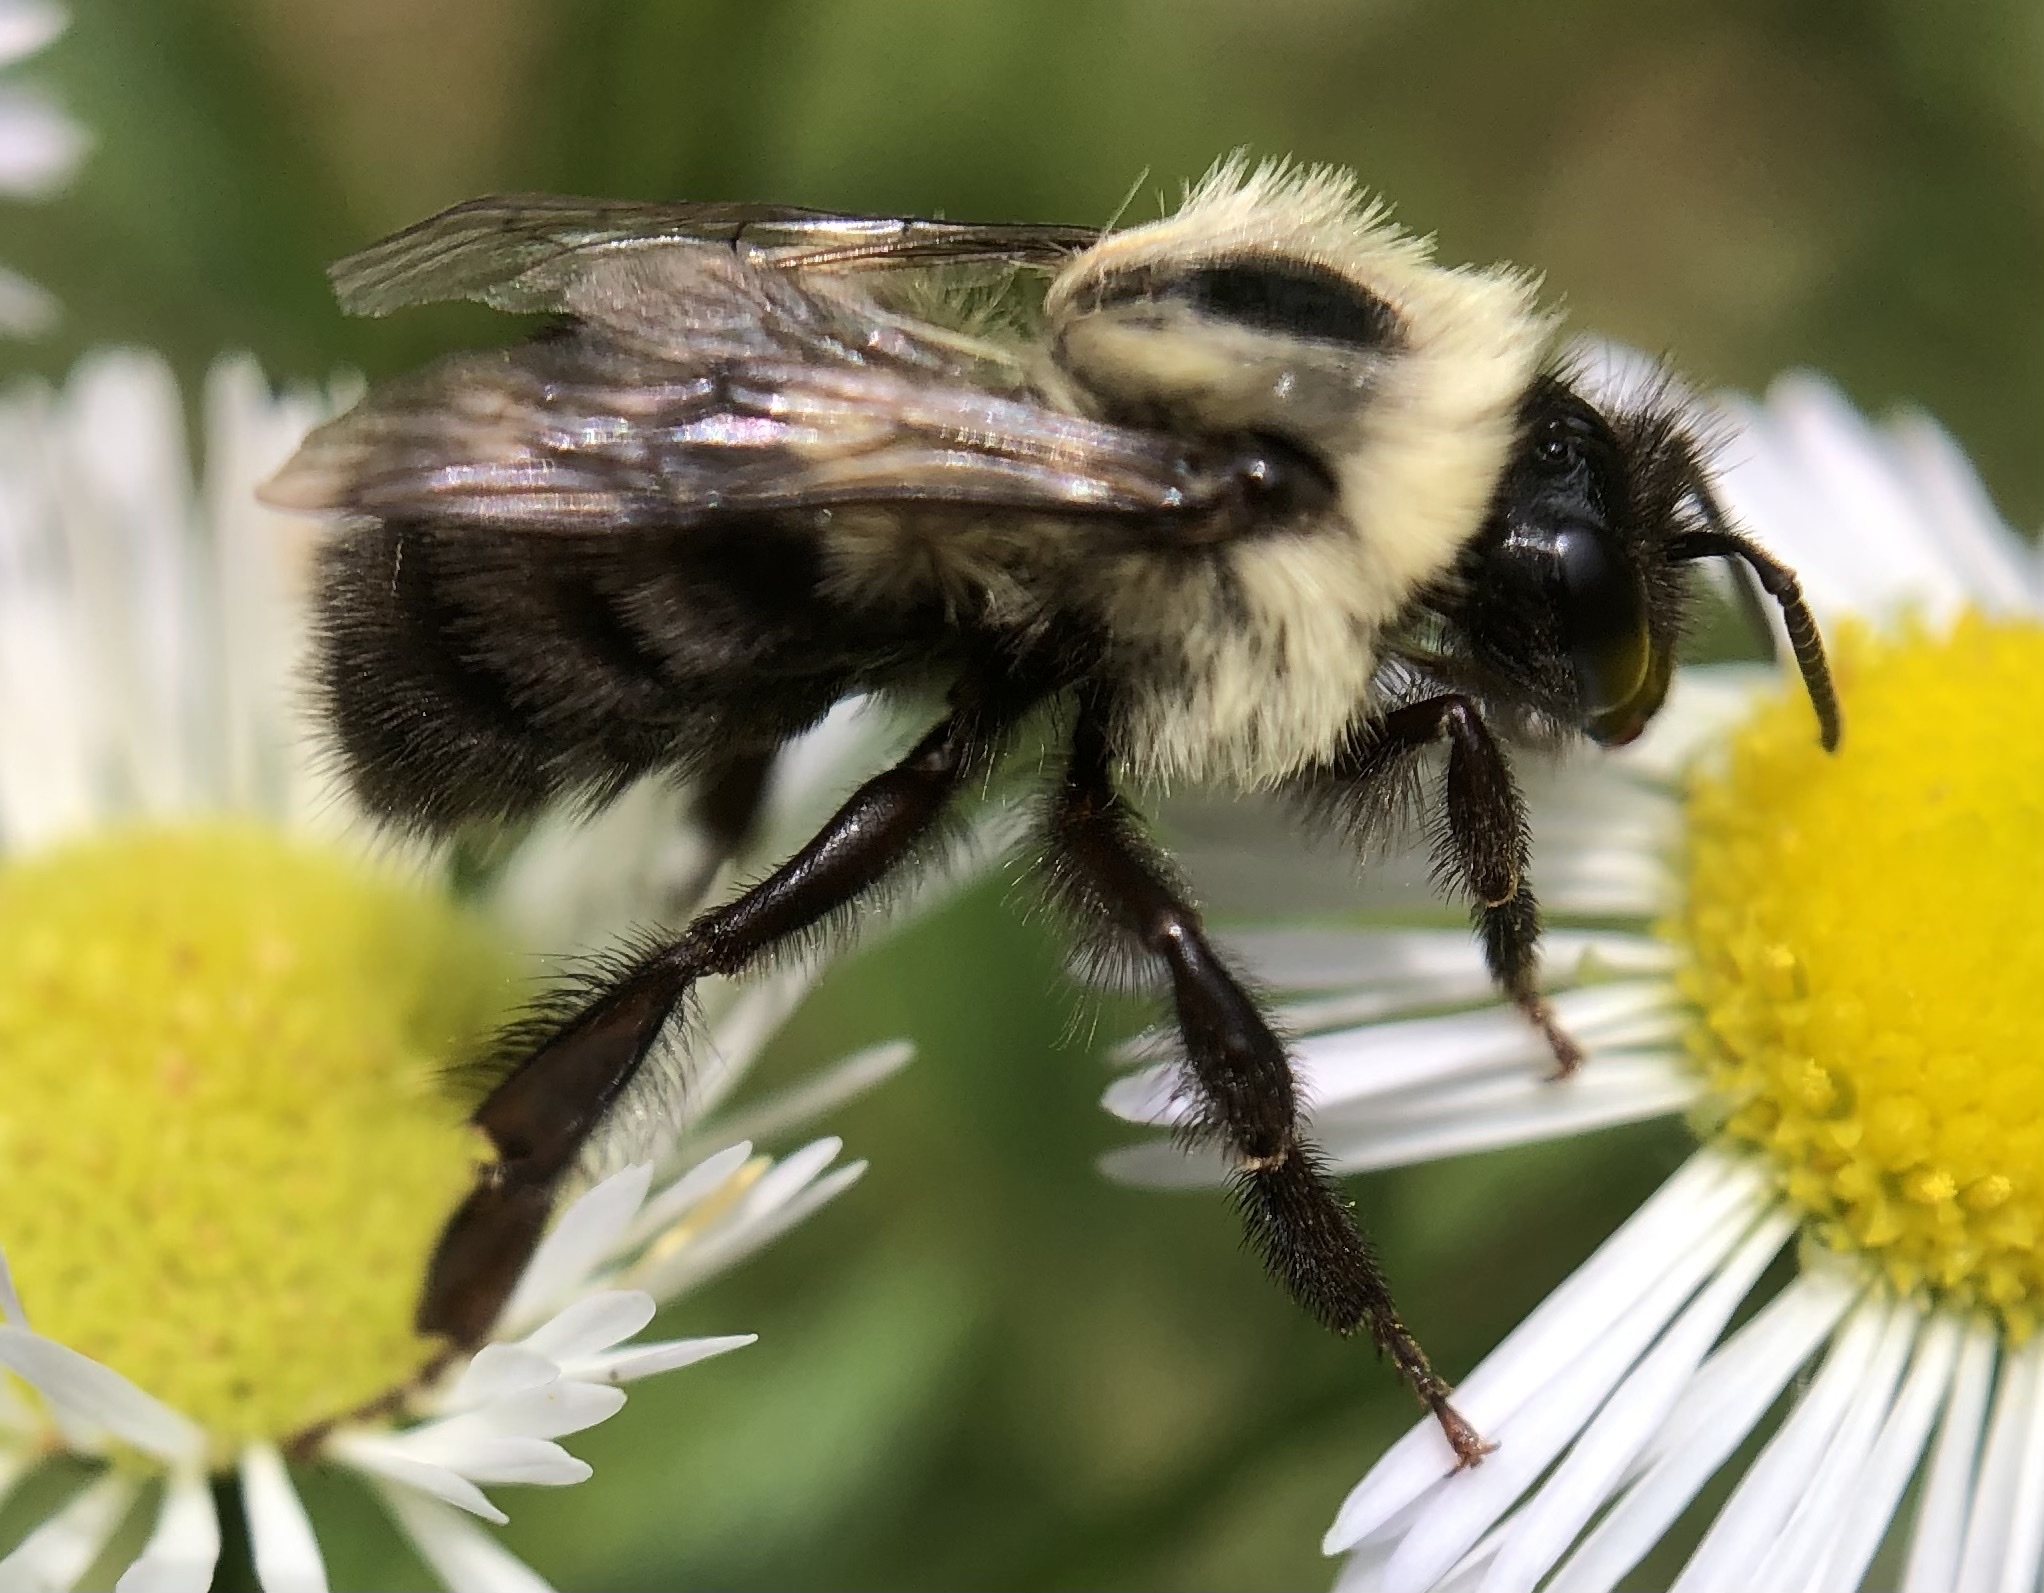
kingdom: Animalia
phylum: Arthropoda
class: Insecta
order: Hymenoptera
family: Apidae
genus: Bombus
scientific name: Bombus impatiens
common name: Common eastern bumble bee
